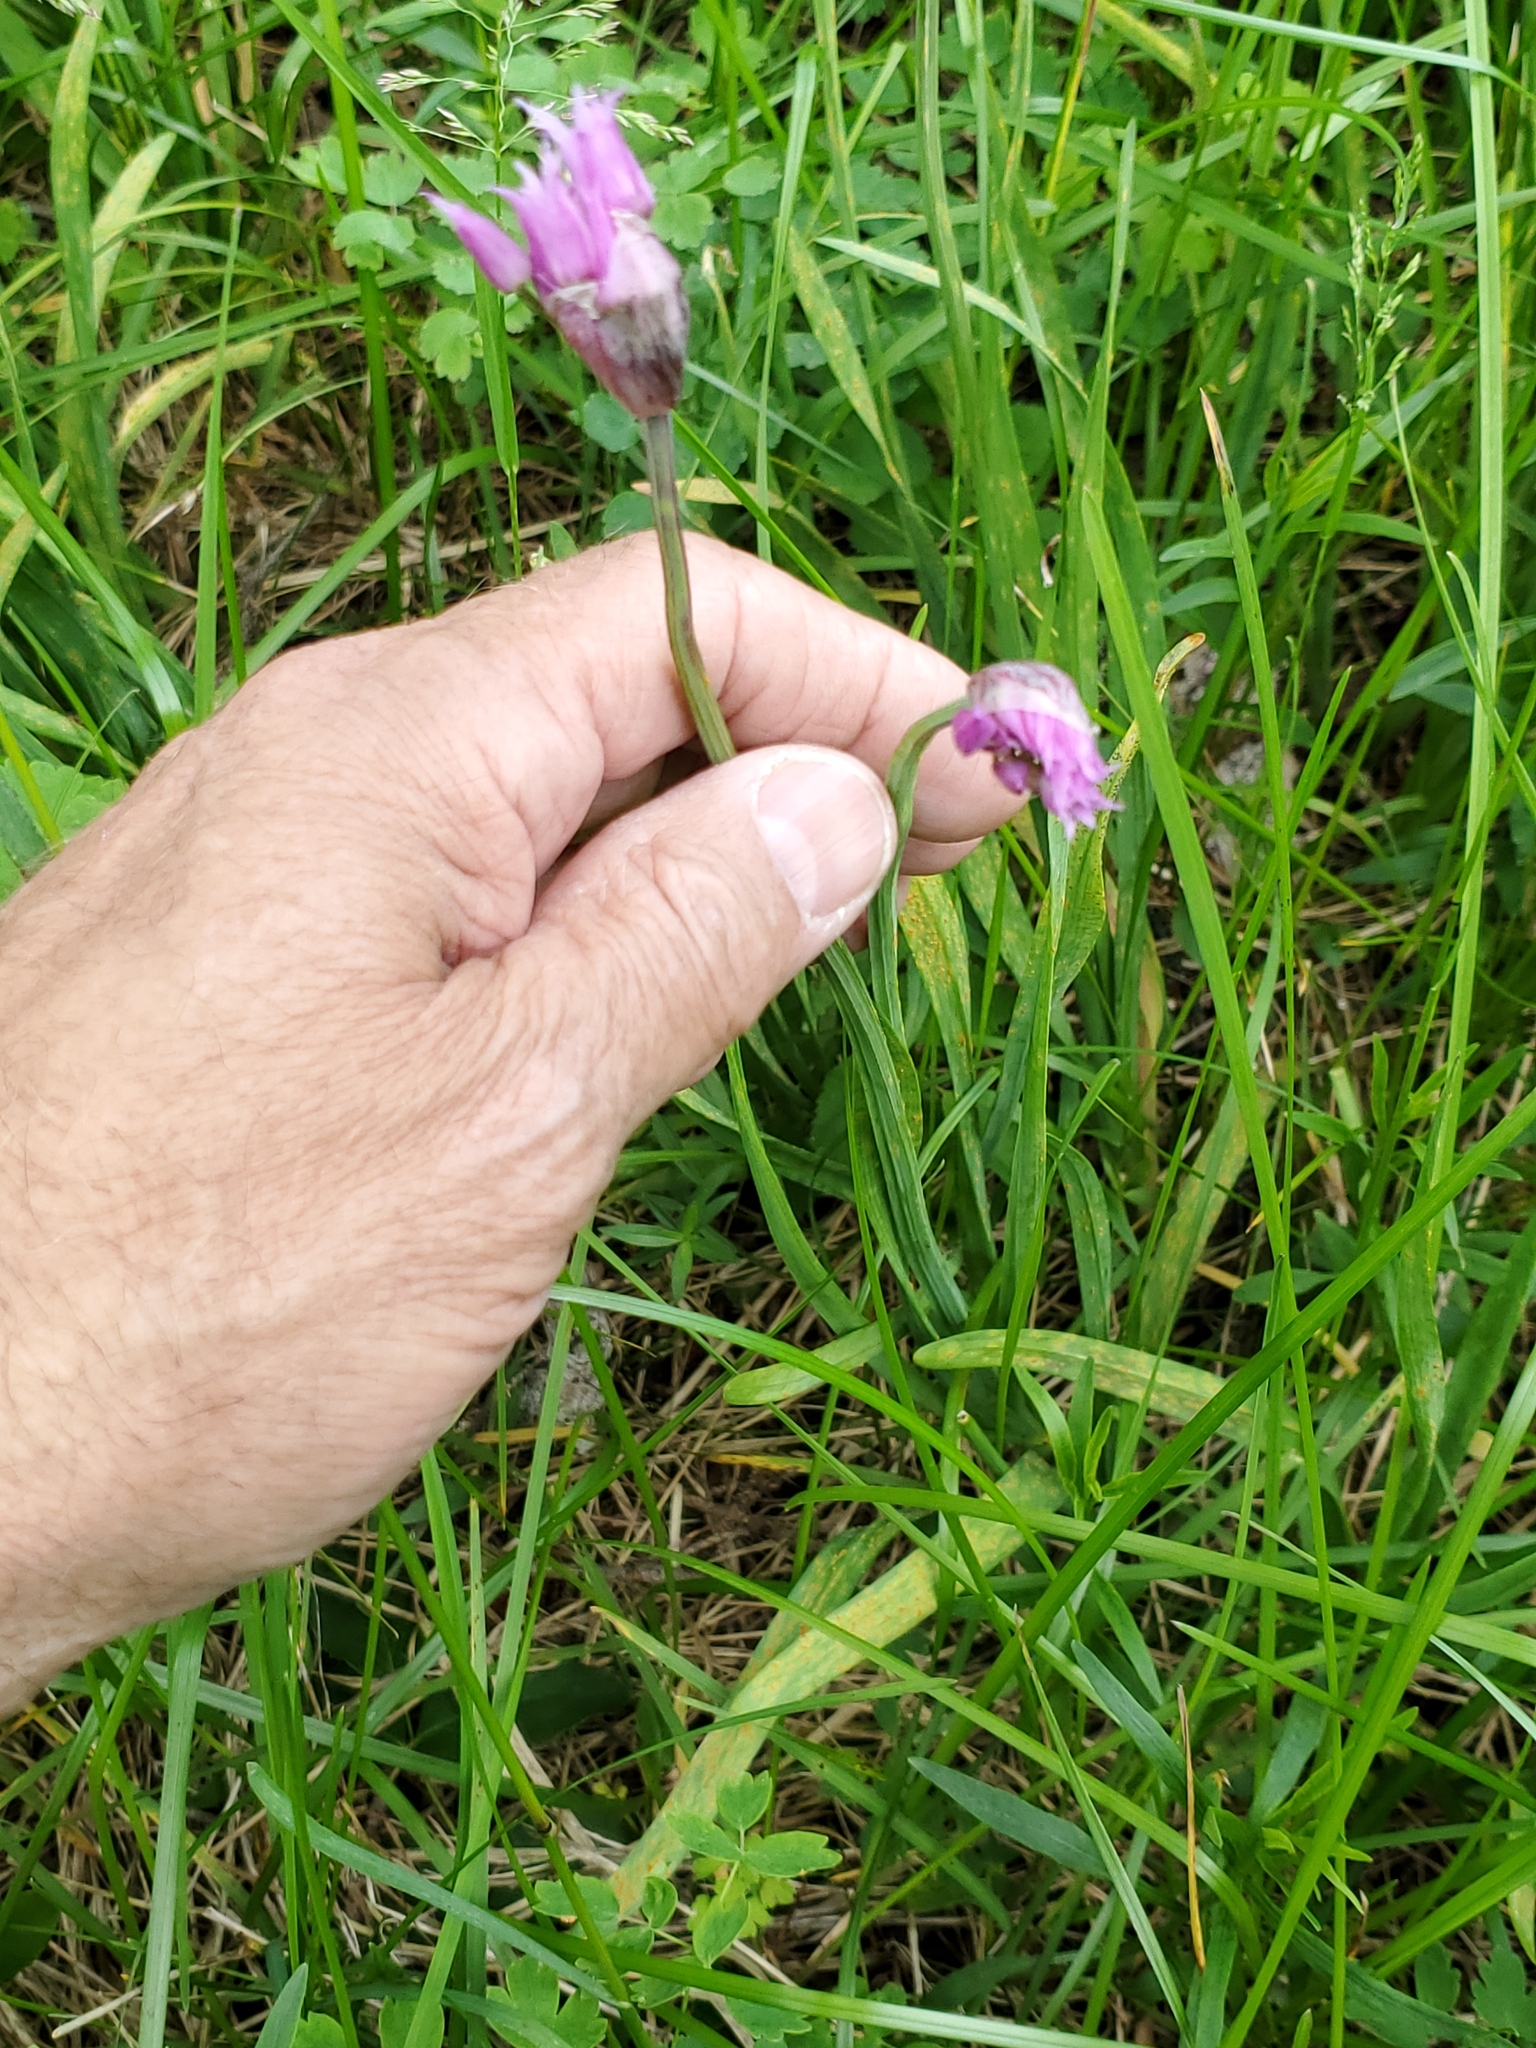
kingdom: Plantae
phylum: Tracheophyta
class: Liliopsida
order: Asparagales
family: Amaryllidaceae
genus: Allium
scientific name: Allium brevistylum
